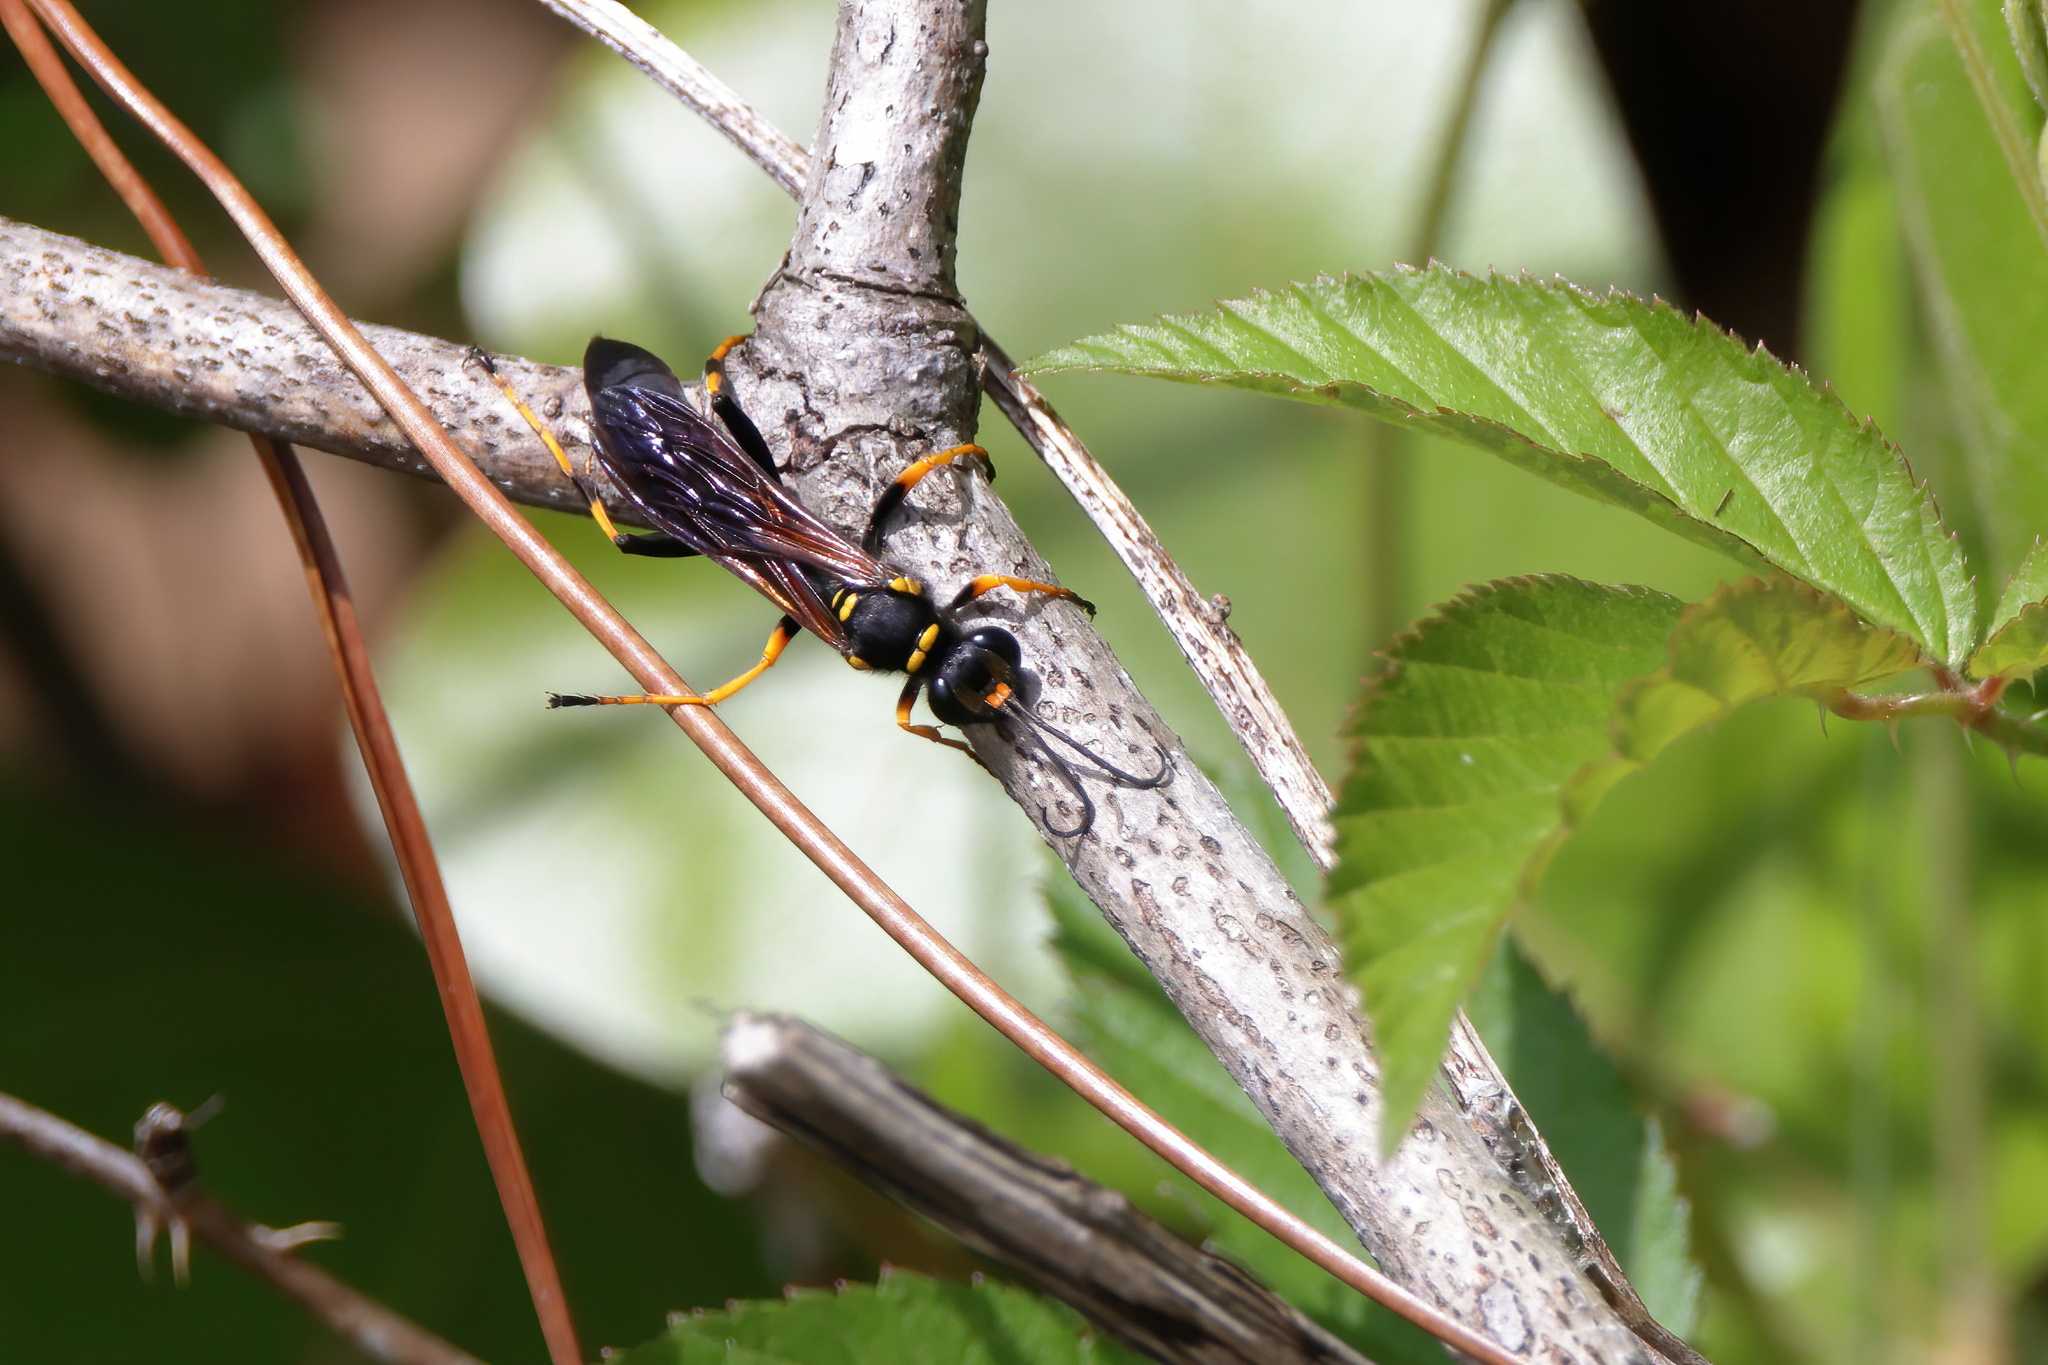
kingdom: Animalia
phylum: Arthropoda
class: Insecta
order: Hymenoptera
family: Sphecidae
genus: Sceliphron
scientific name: Sceliphron caementarium
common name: Mud dauber
